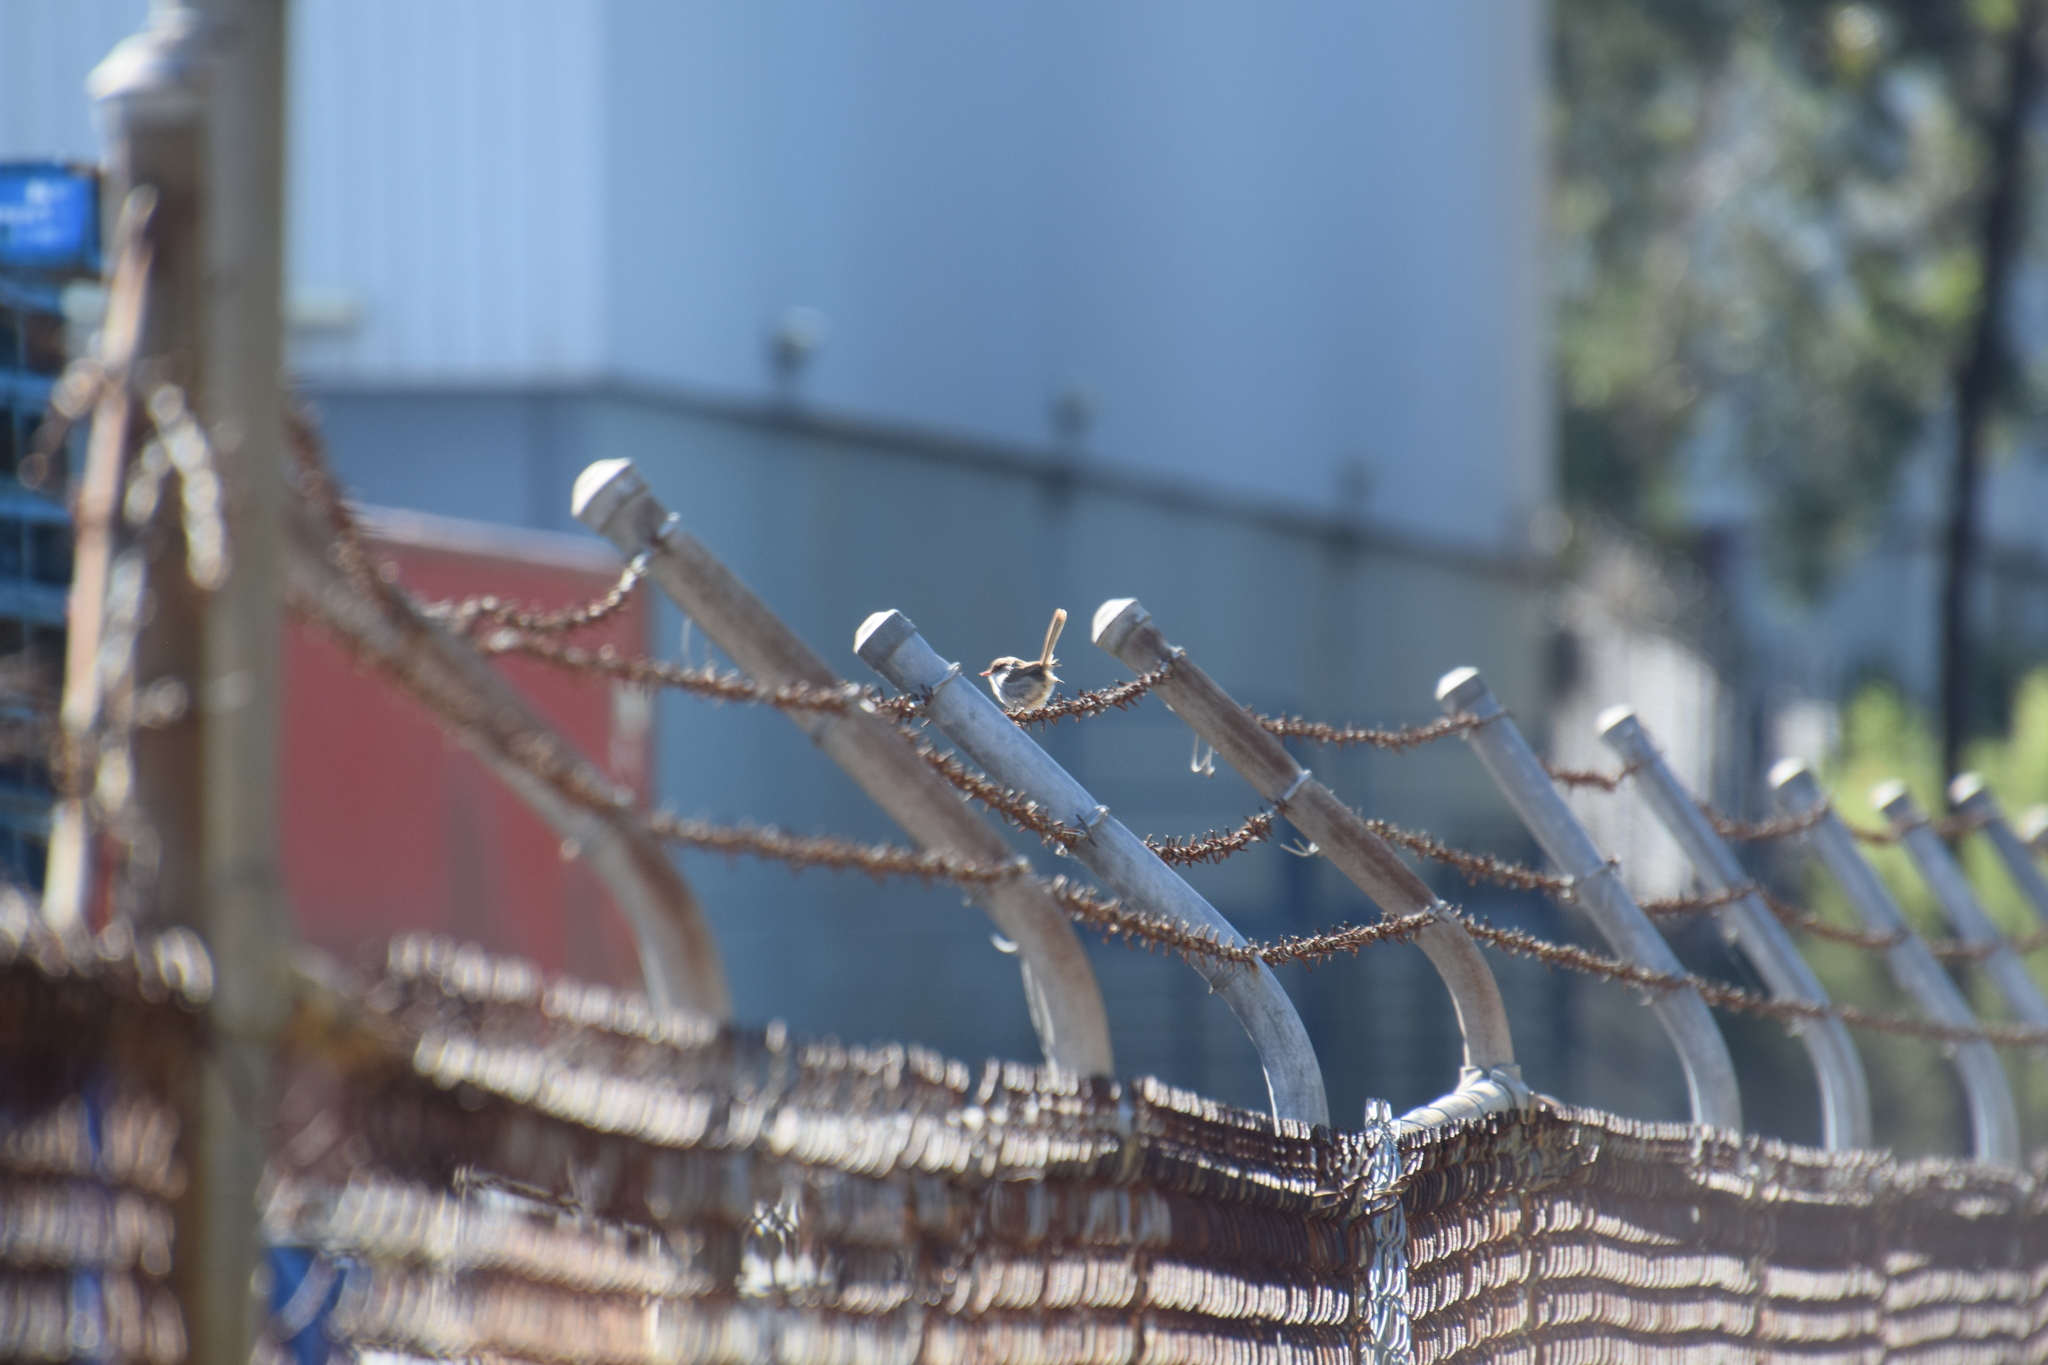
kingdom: Animalia
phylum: Chordata
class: Aves
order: Passeriformes
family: Maluridae
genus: Malurus
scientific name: Malurus cyaneus
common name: Superb fairywren
